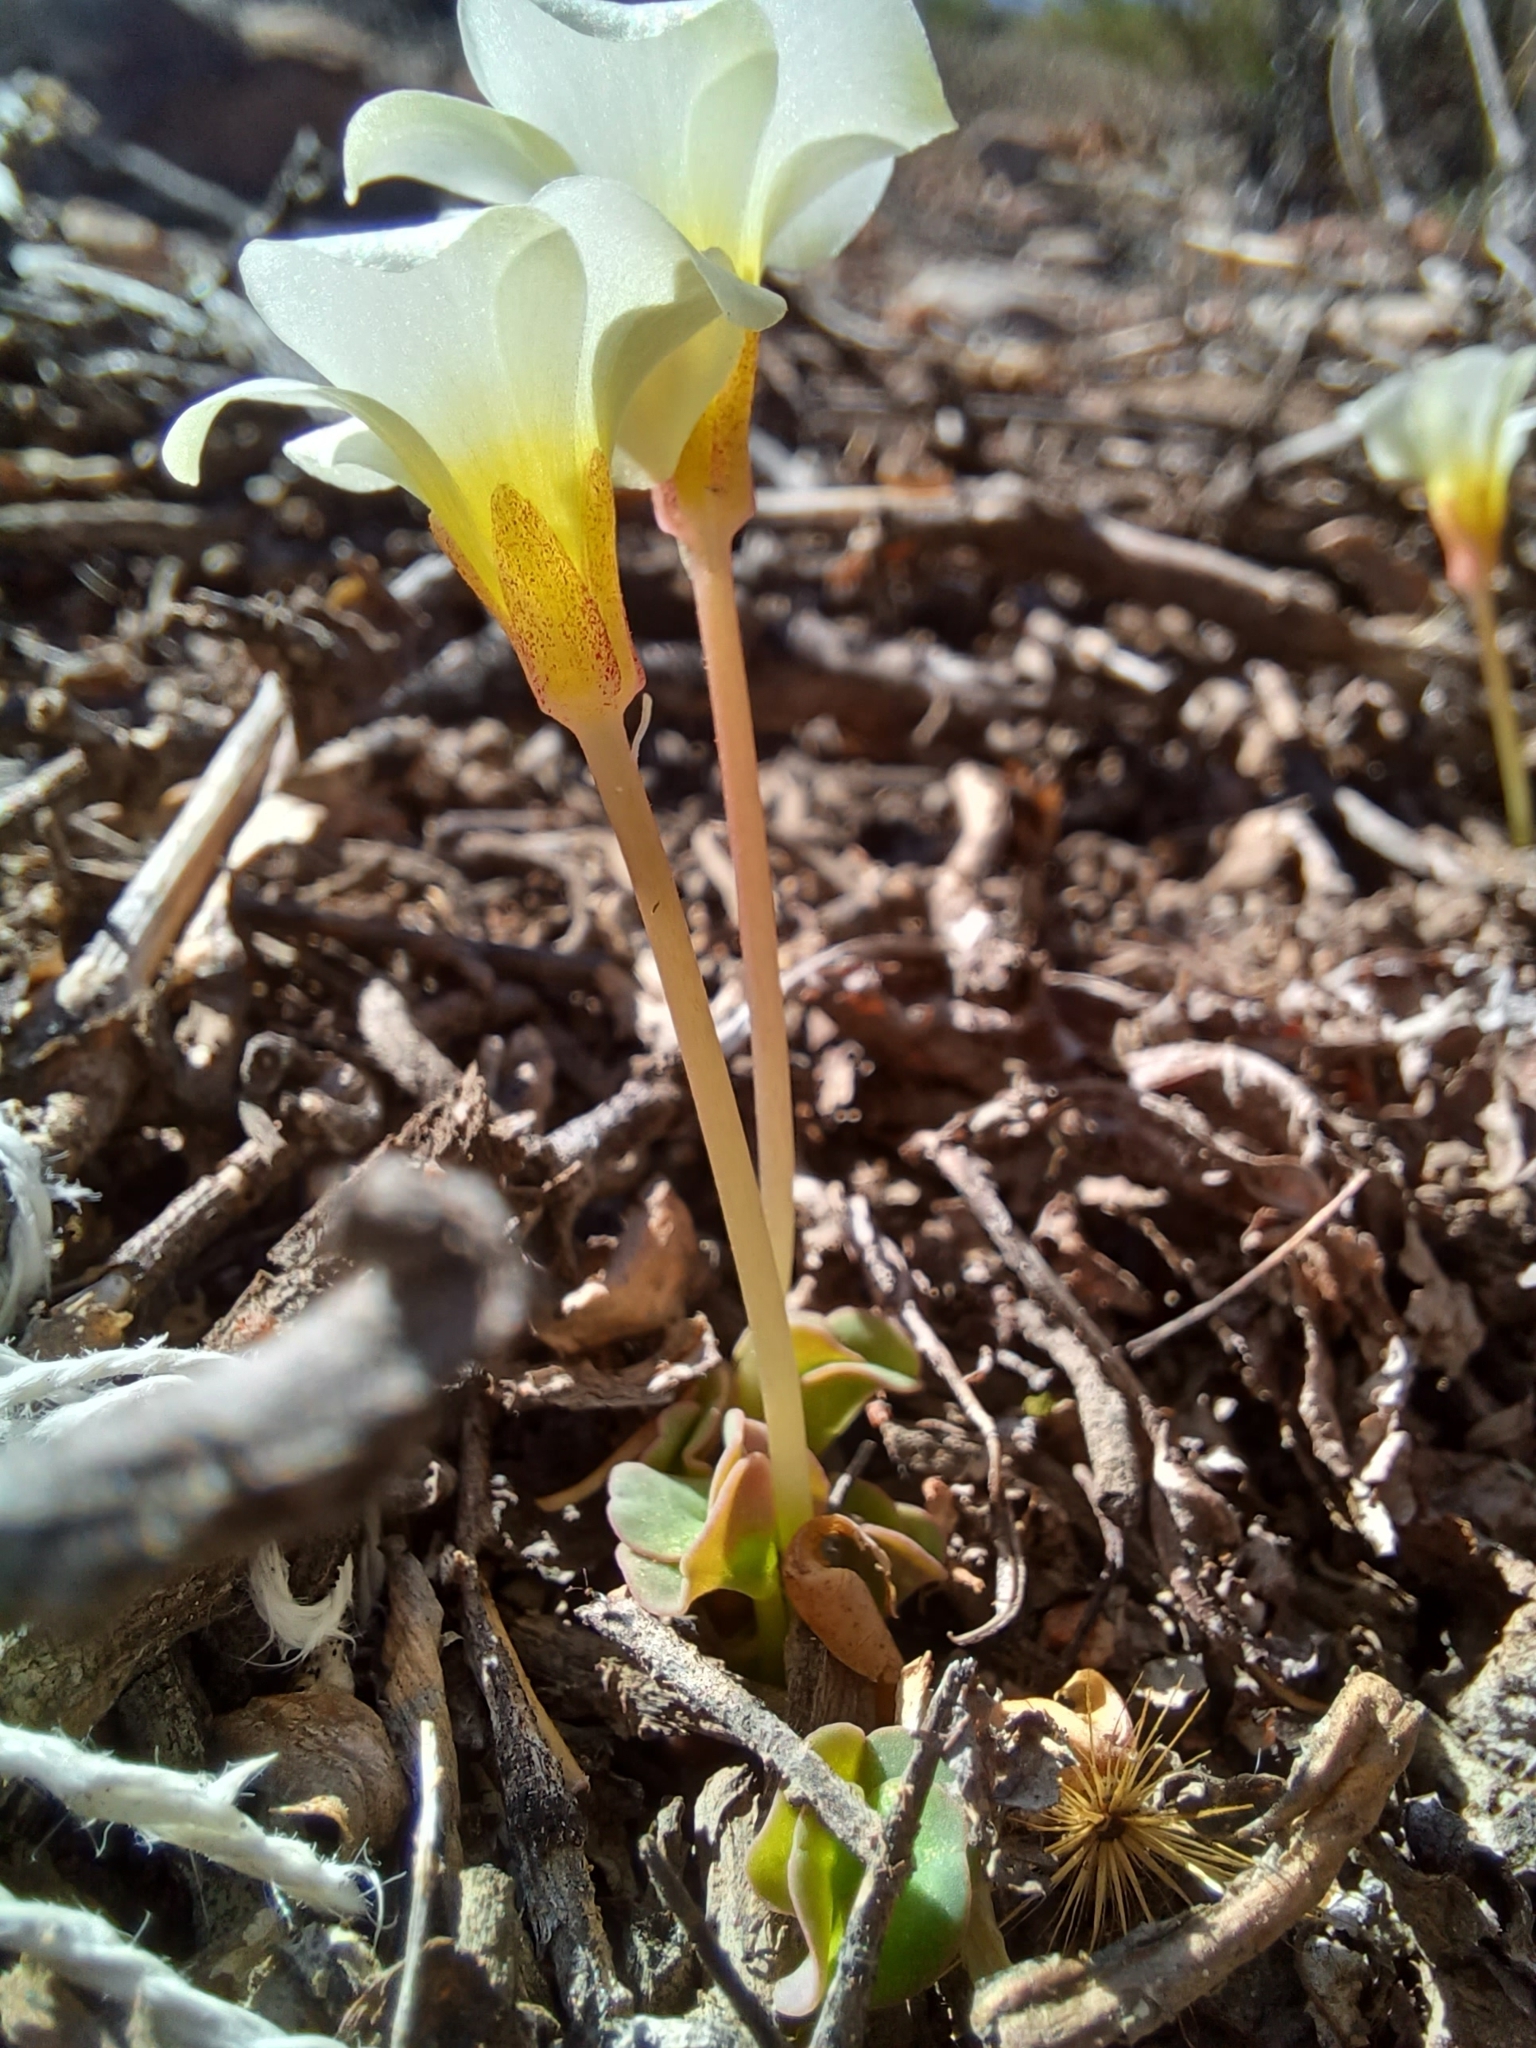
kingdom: Plantae
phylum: Tracheophyta
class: Magnoliopsida
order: Oxalidales
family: Oxalidaceae
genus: Oxalis
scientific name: Oxalis depressa
